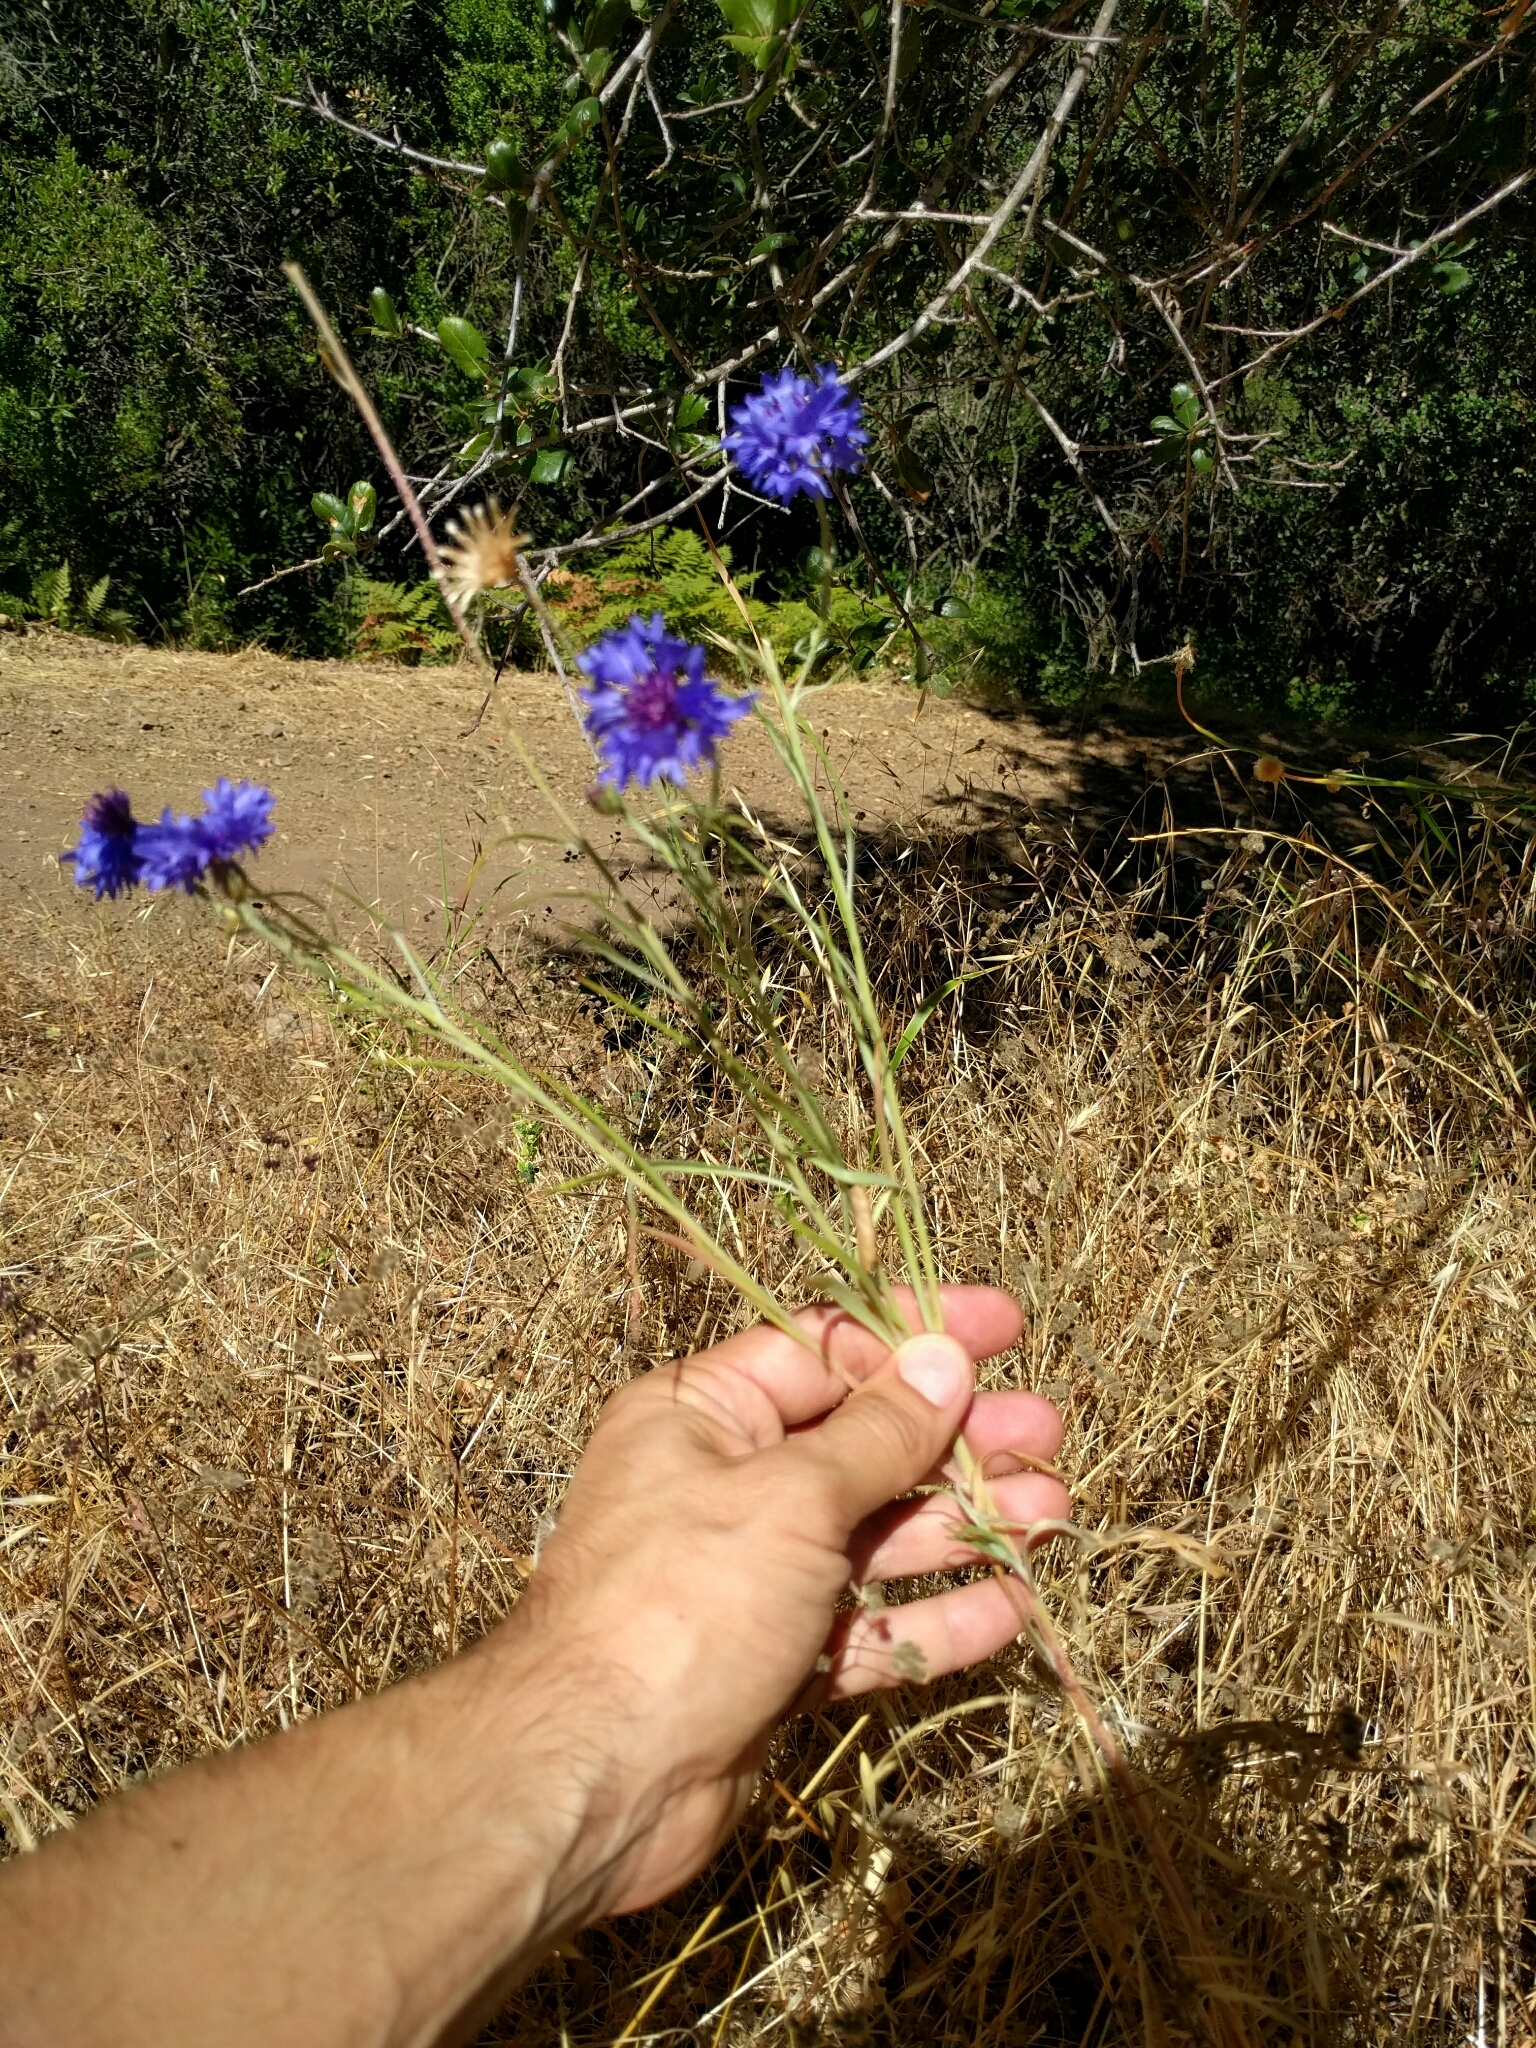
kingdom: Plantae
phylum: Tracheophyta
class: Magnoliopsida
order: Asterales
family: Asteraceae
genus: Centaurea
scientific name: Centaurea cyanus
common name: Cornflower
